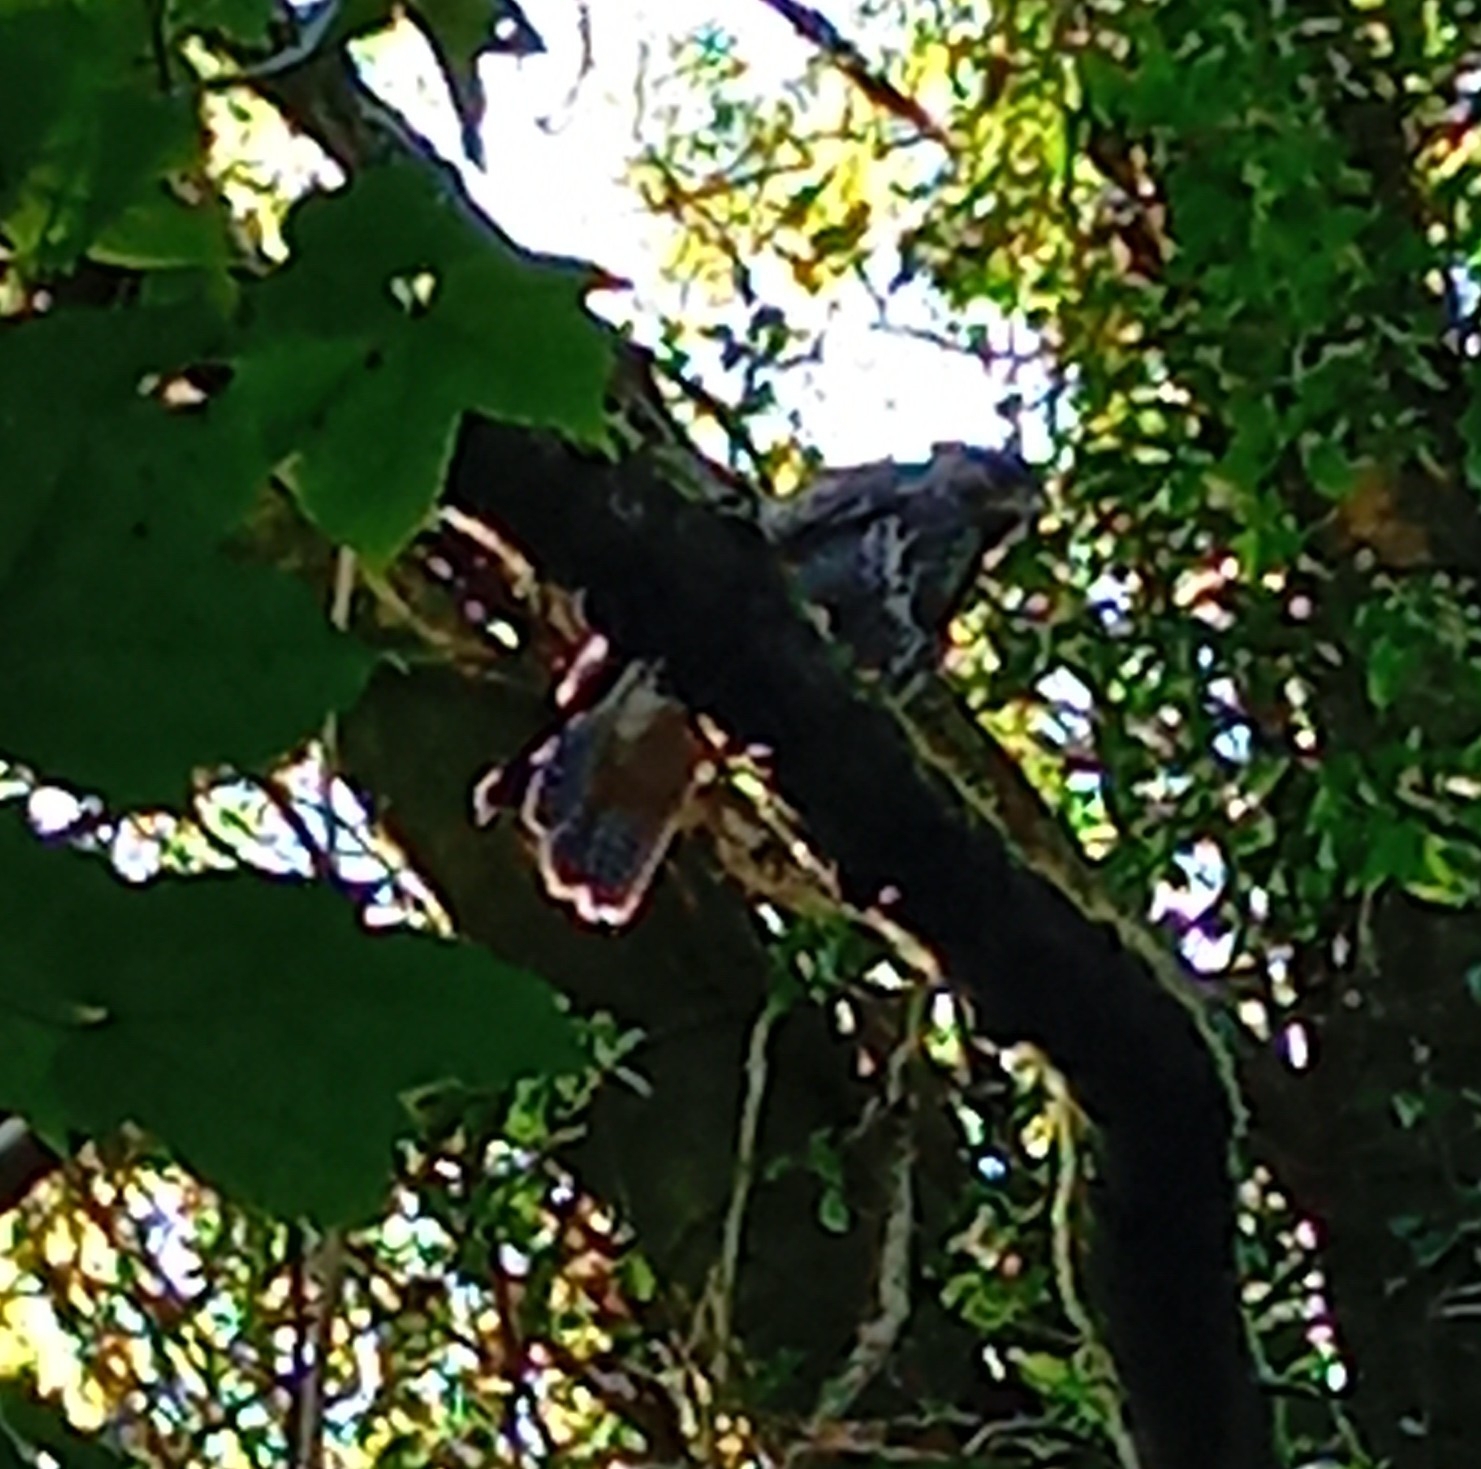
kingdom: Animalia
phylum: Chordata
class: Aves
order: Accipitriformes
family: Accipitridae
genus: Buteo
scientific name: Buteo buteo
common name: Common buzzard
